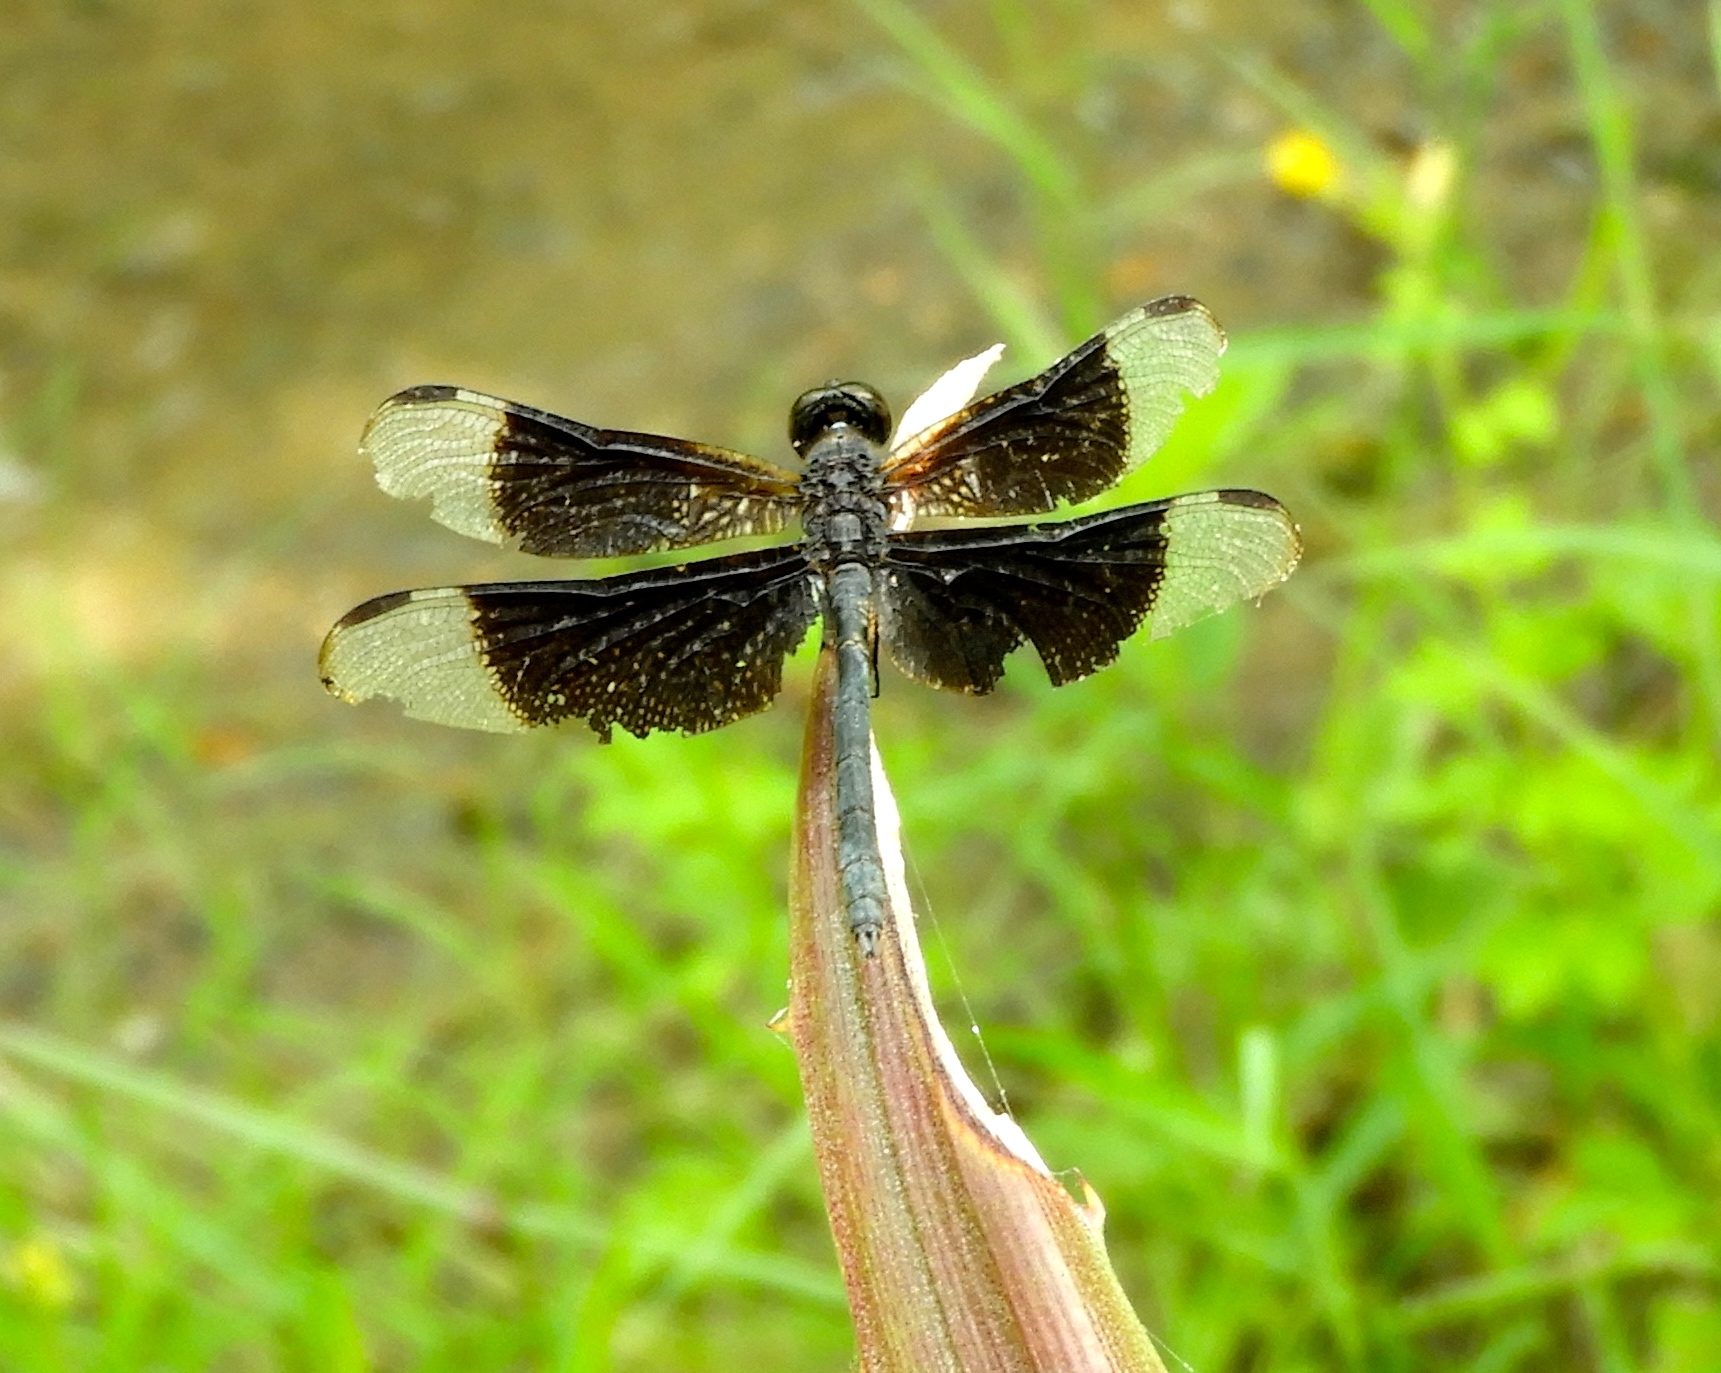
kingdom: Animalia
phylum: Arthropoda
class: Insecta
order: Odonata
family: Libellulidae
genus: Erythrodiplax
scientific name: Erythrodiplax funerea
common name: Black-winged dragonlet
